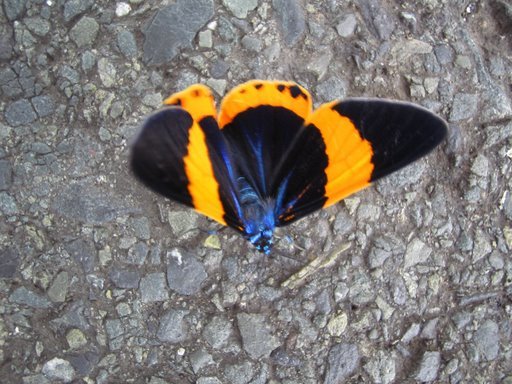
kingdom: Animalia
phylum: Arthropoda
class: Insecta
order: Lepidoptera
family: Geometridae
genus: Milionia
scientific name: Milionia basalis
